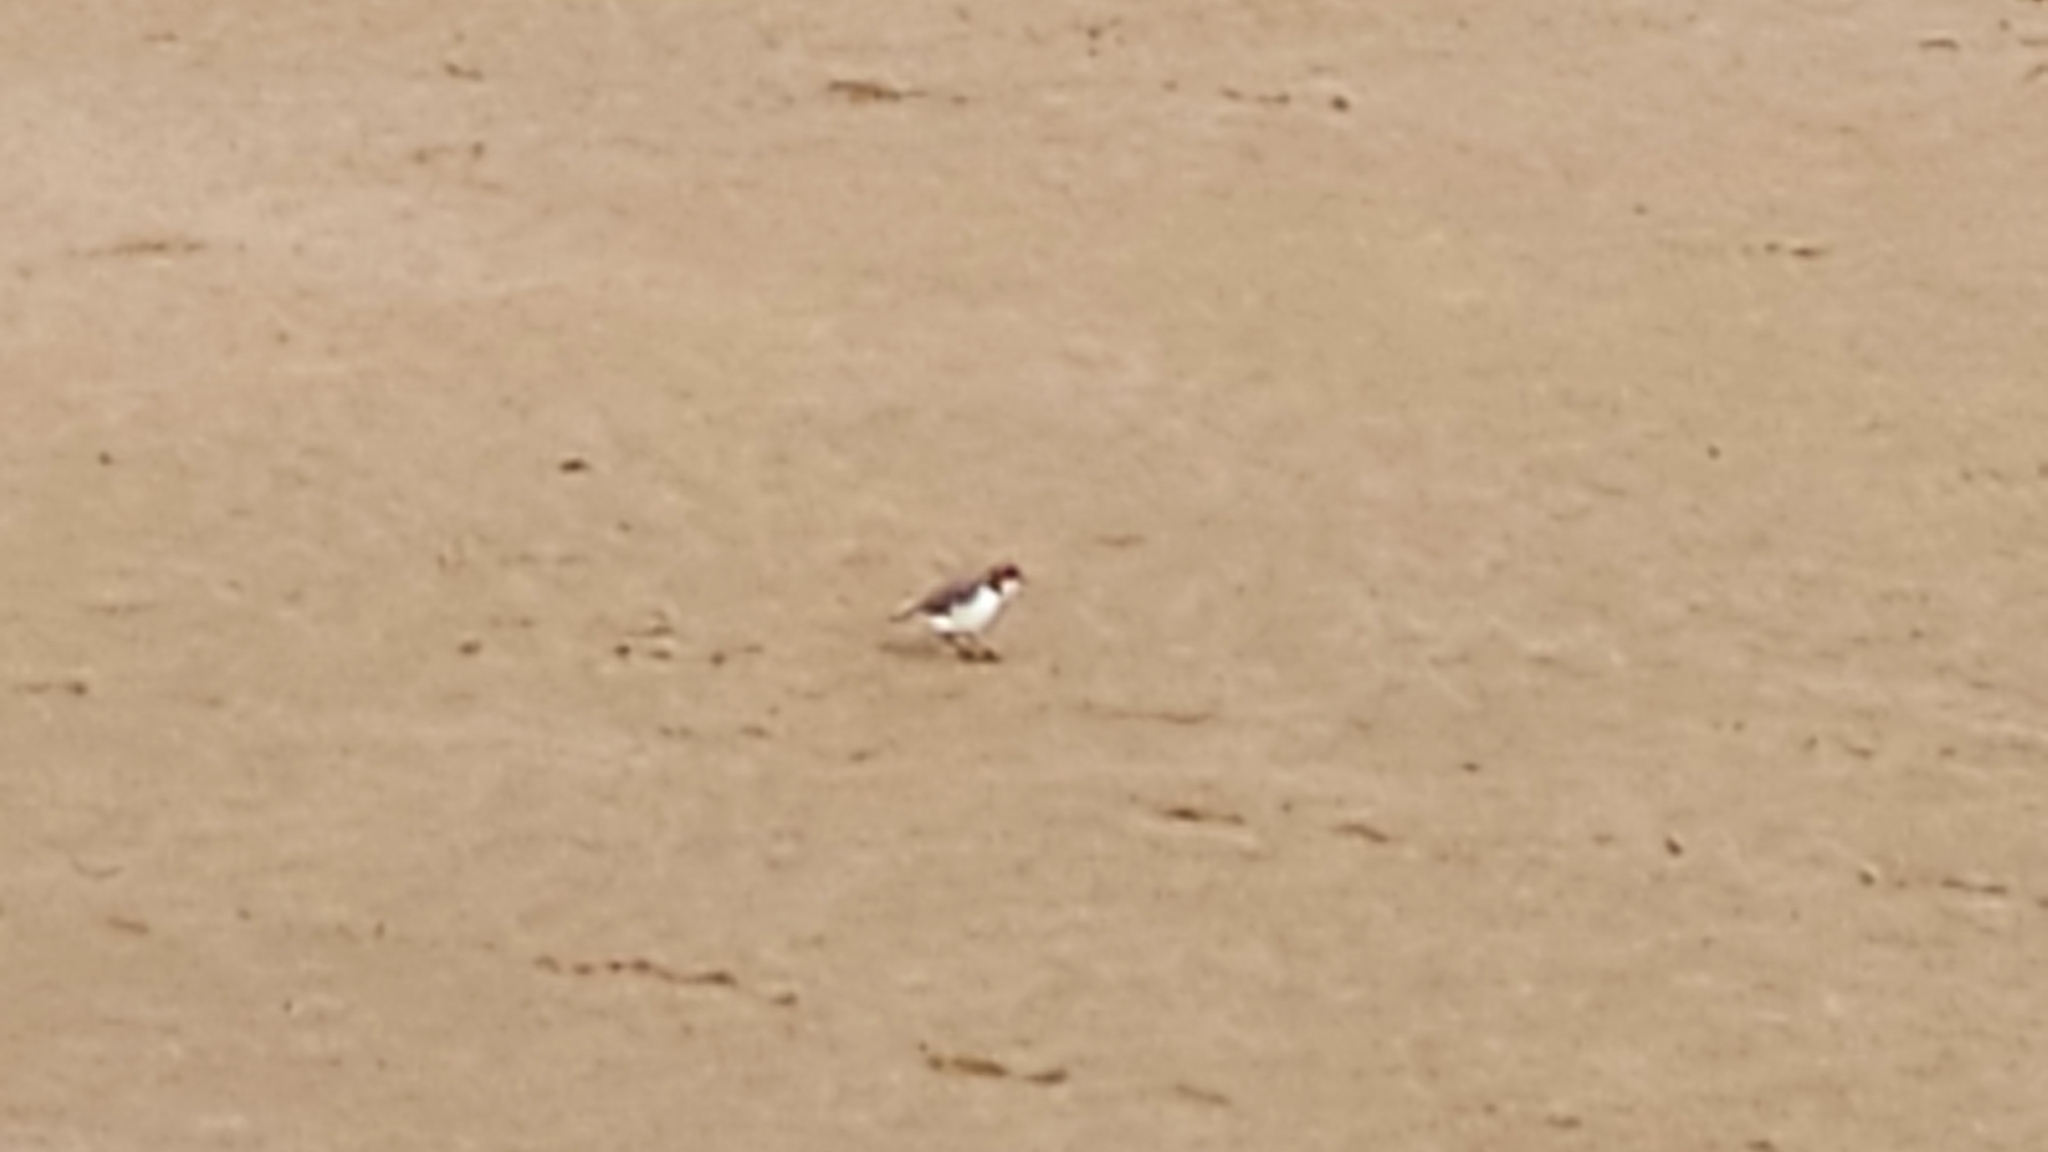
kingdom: Animalia
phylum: Chordata
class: Aves
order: Charadriiformes
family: Charadriidae
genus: Anarhynchus
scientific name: Anarhynchus
